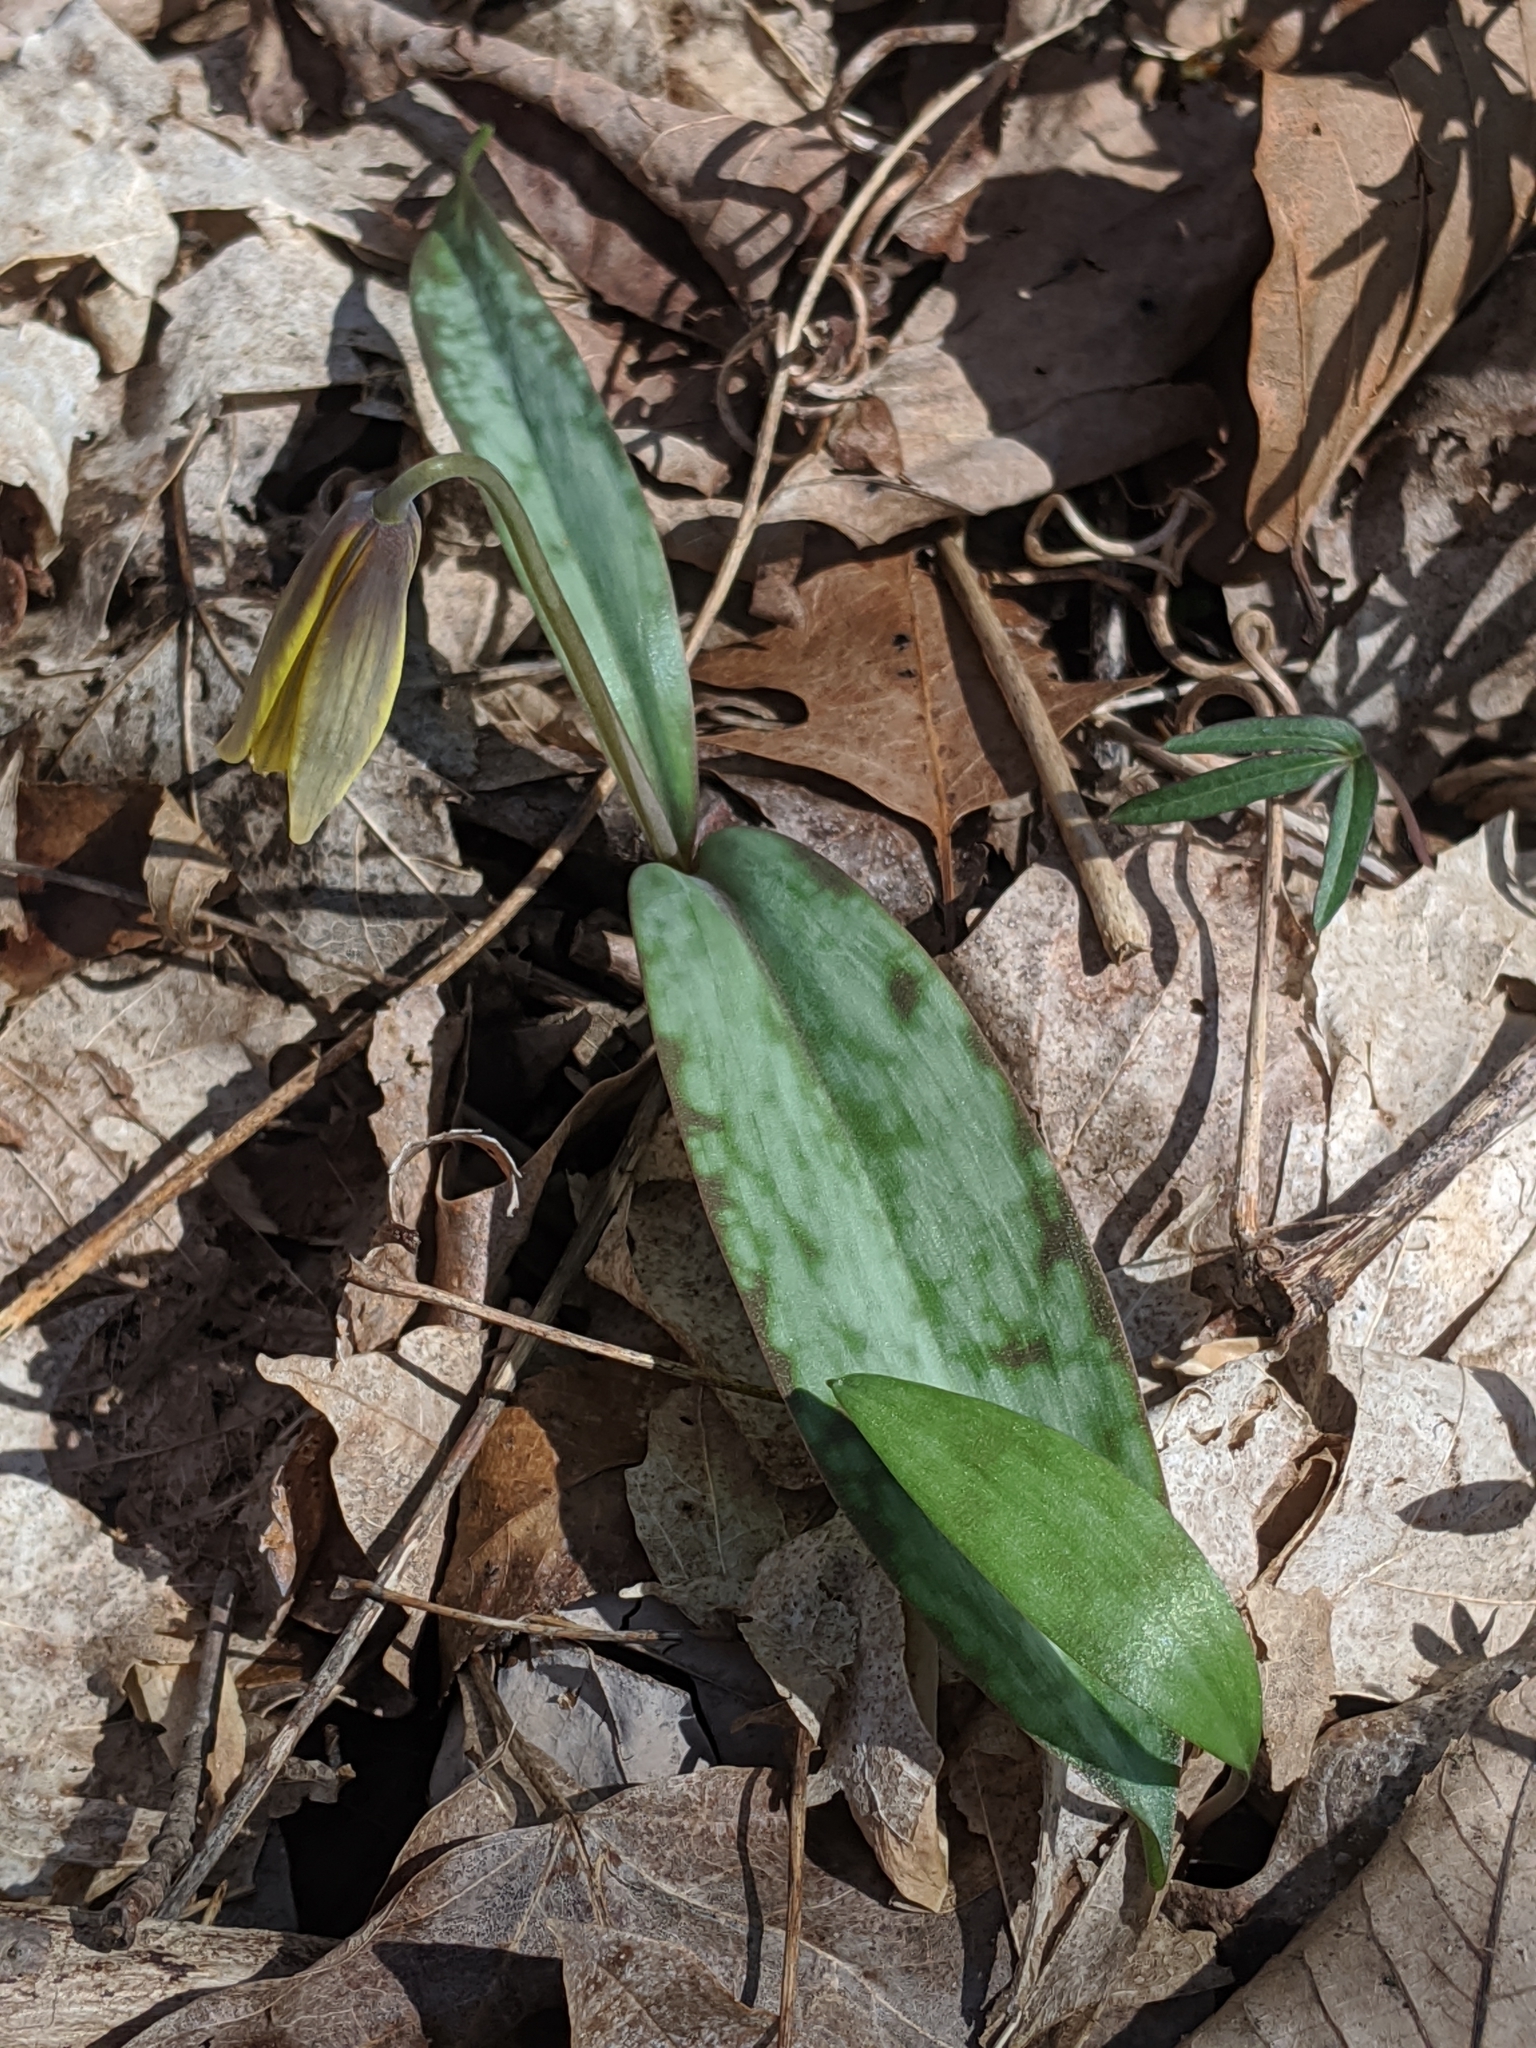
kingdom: Plantae
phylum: Tracheophyta
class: Liliopsida
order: Liliales
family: Liliaceae
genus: Erythronium
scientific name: Erythronium americanum
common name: Yellow adder's-tongue
